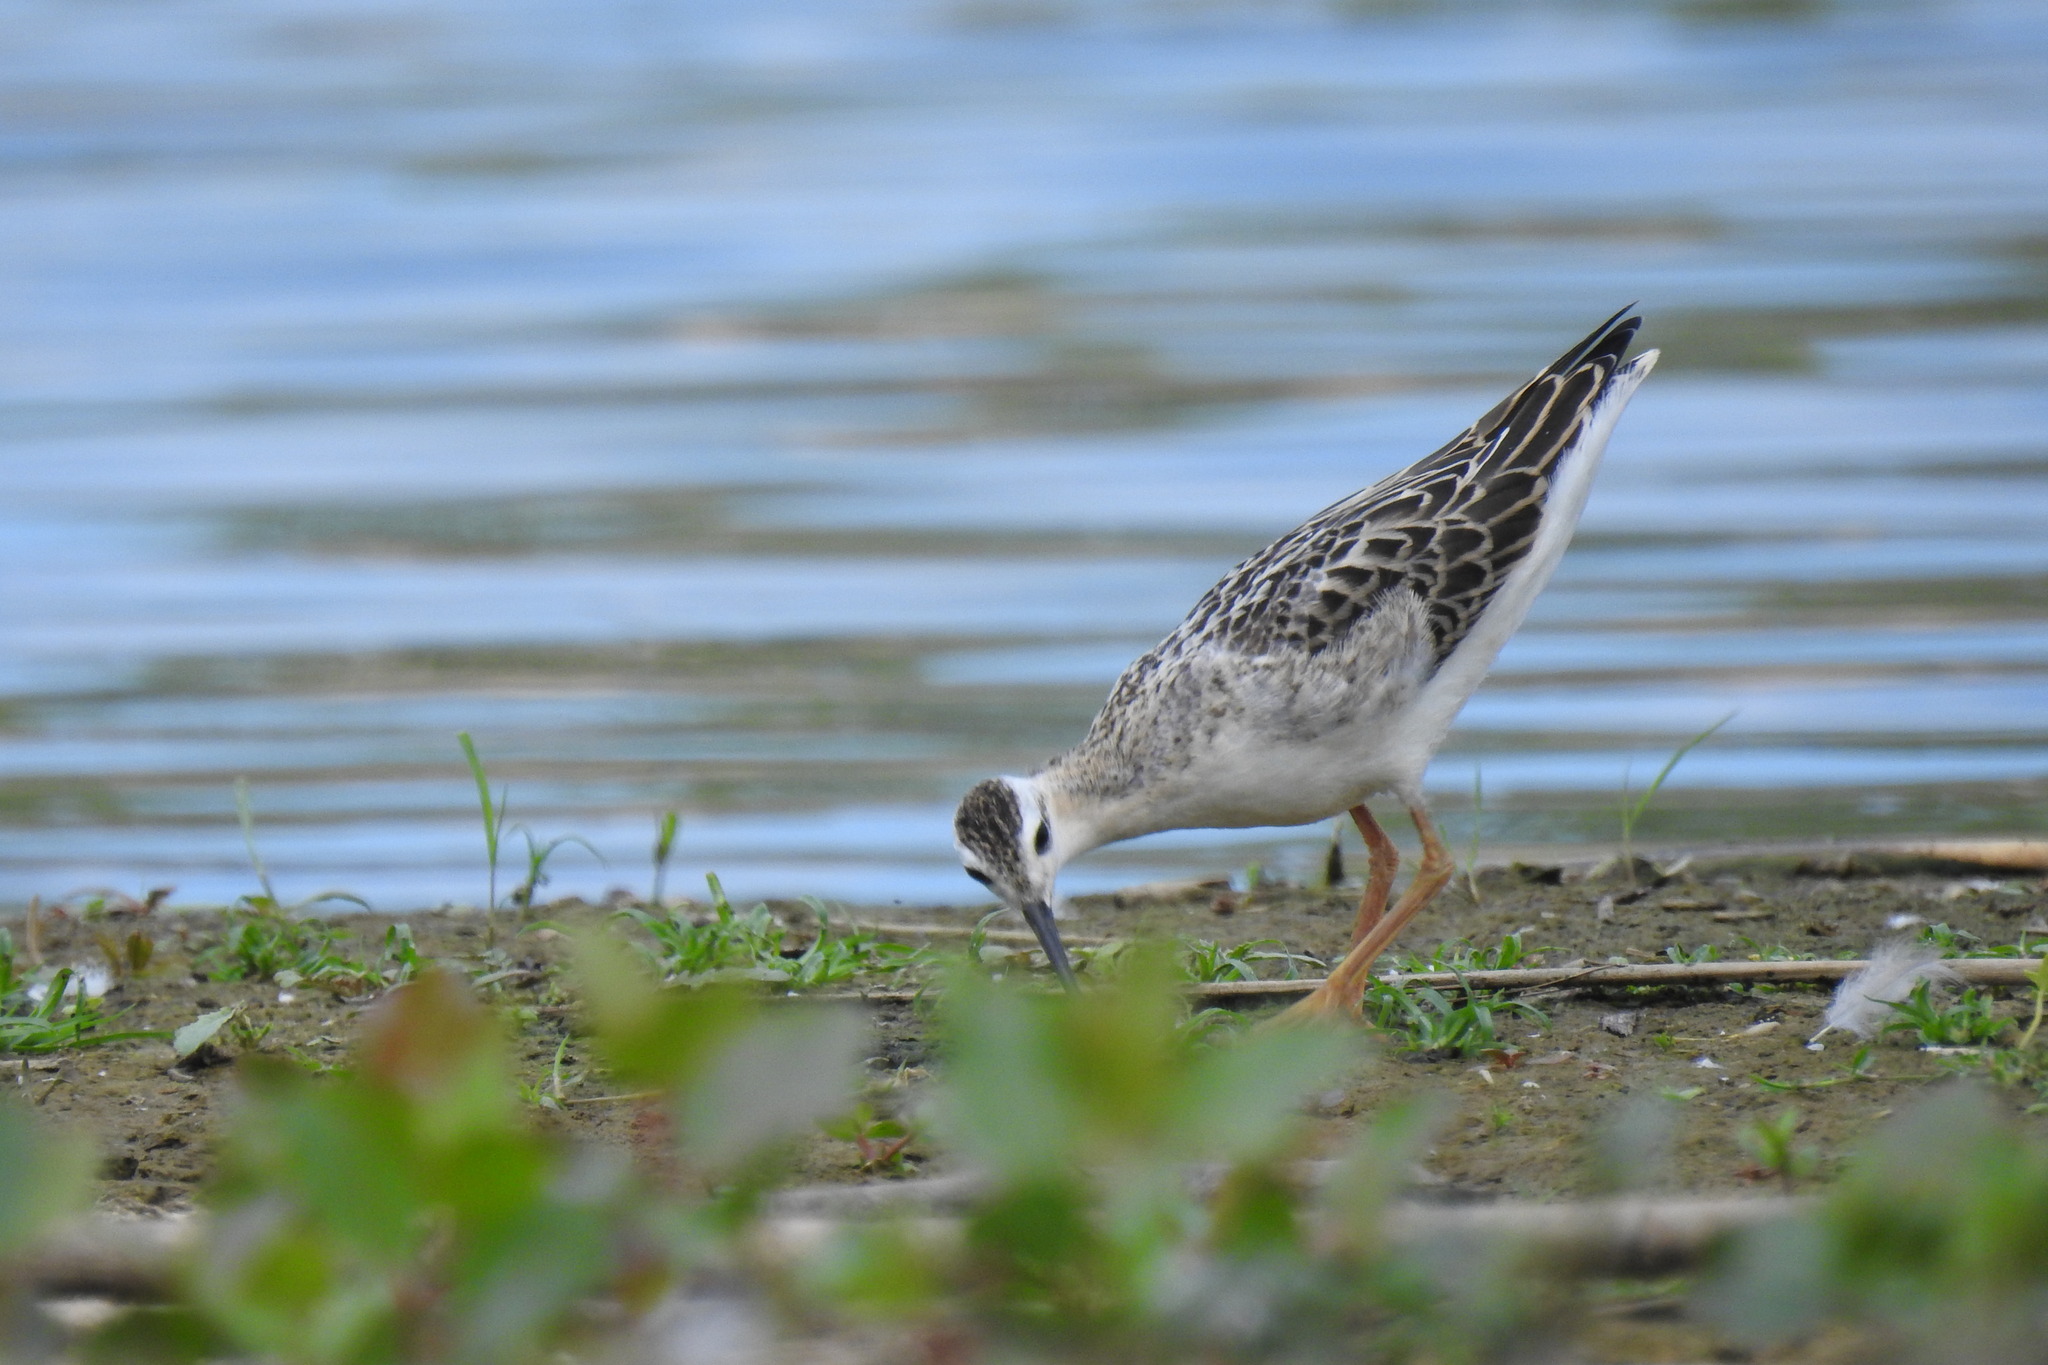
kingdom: Animalia
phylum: Chordata
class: Aves
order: Charadriiformes
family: Scolopacidae
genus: Phalaropus
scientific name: Phalaropus tricolor
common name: Wilson's phalarope
